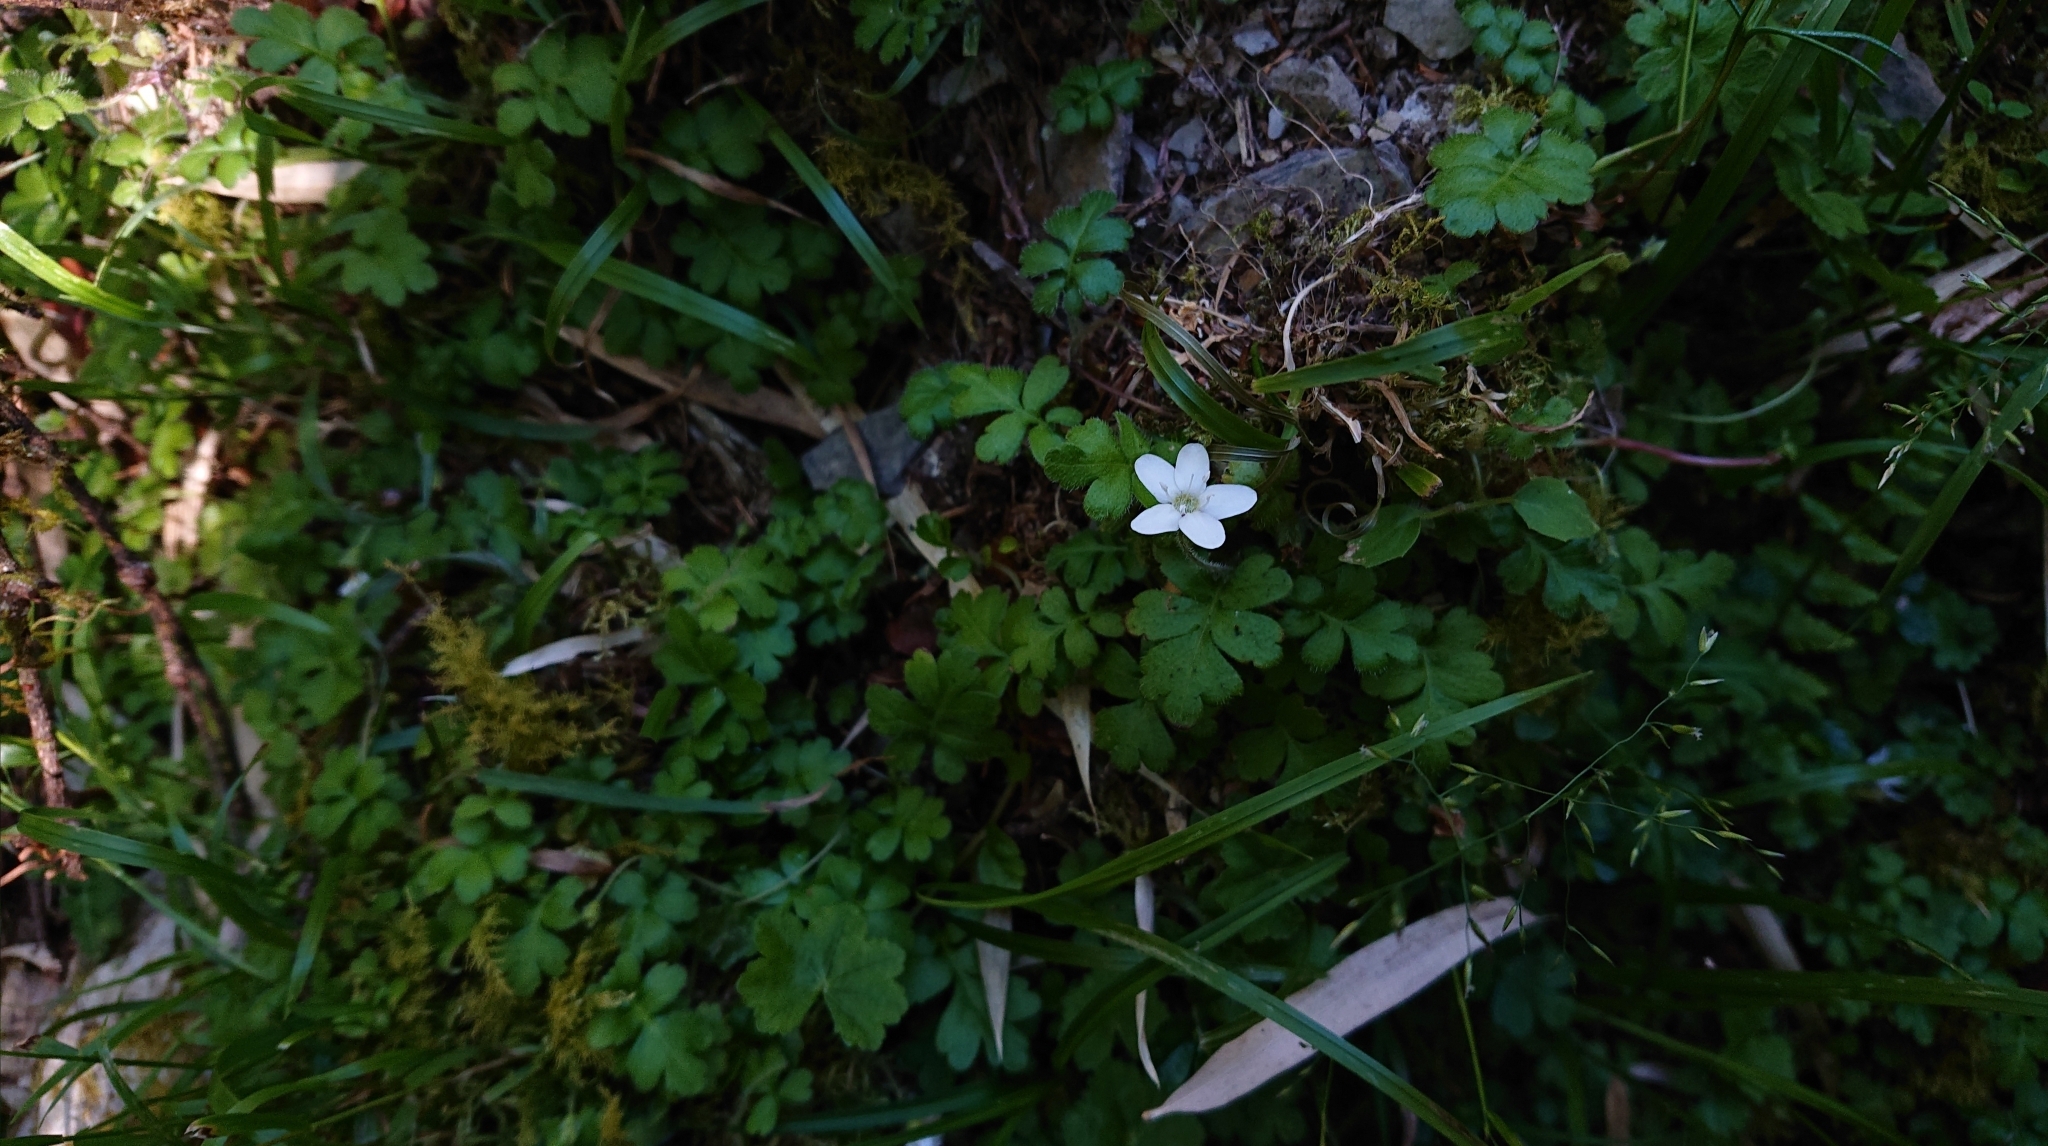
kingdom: Plantae
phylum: Tracheophyta
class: Magnoliopsida
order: Lamiales
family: Plantaginaceae
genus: Ellisiophyllum
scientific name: Ellisiophyllum pinnatum
